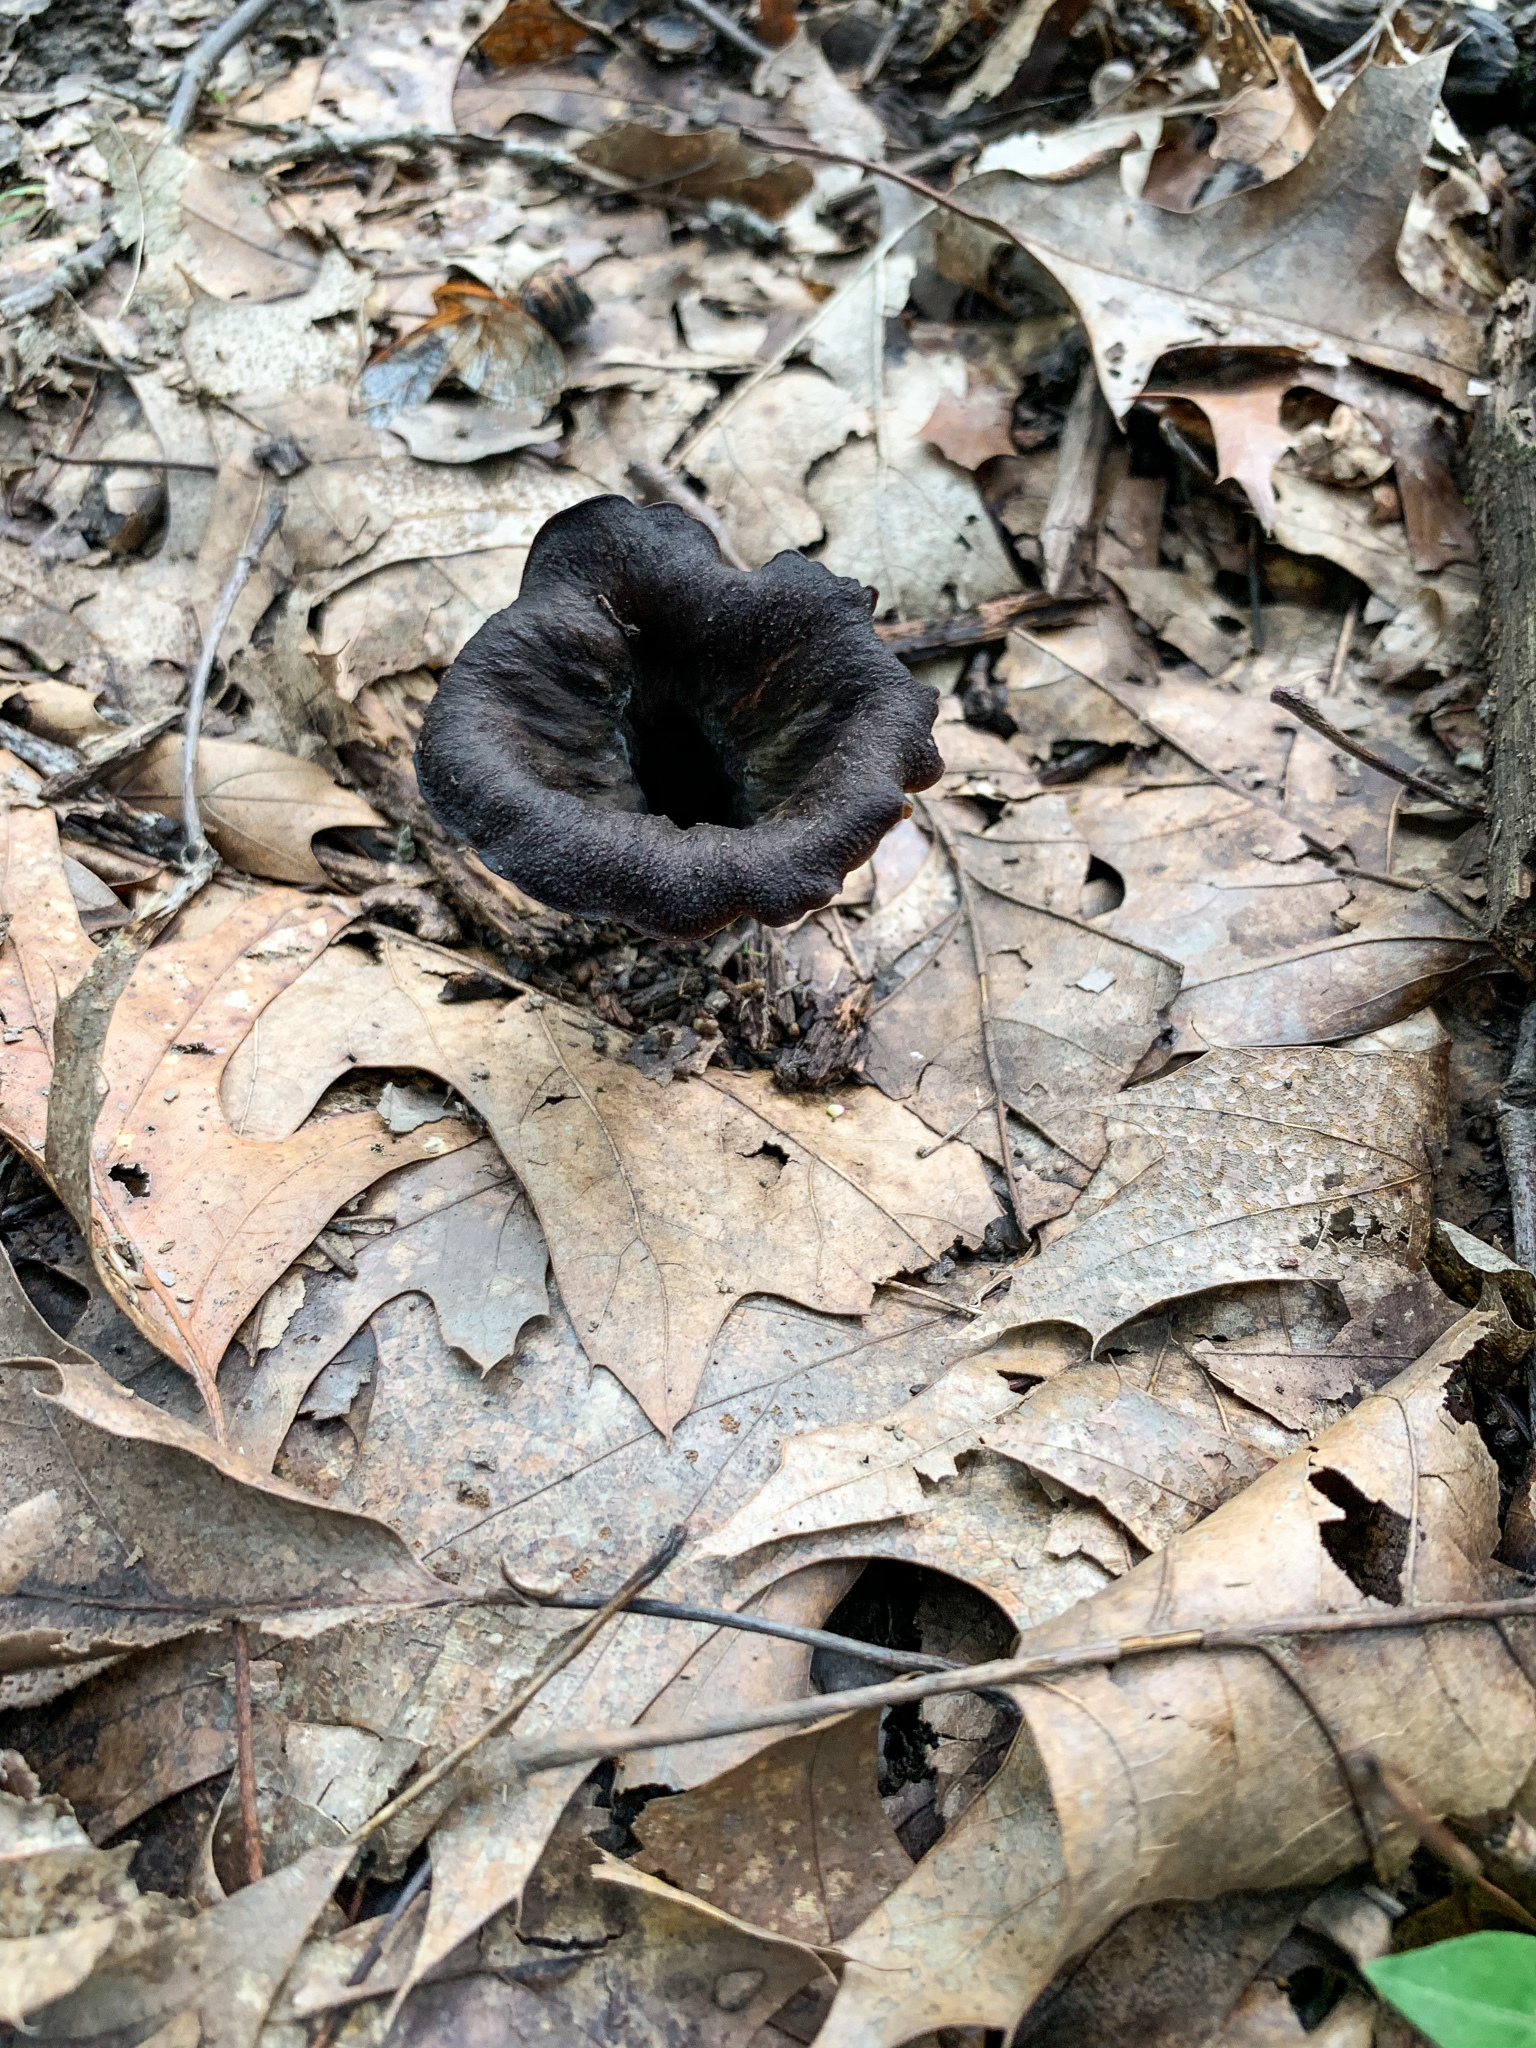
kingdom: Fungi
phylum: Basidiomycota
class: Agaricomycetes
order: Cantharellales
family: Hydnaceae
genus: Craterellus
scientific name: Craterellus cornucopioides
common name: Horn of plenty
